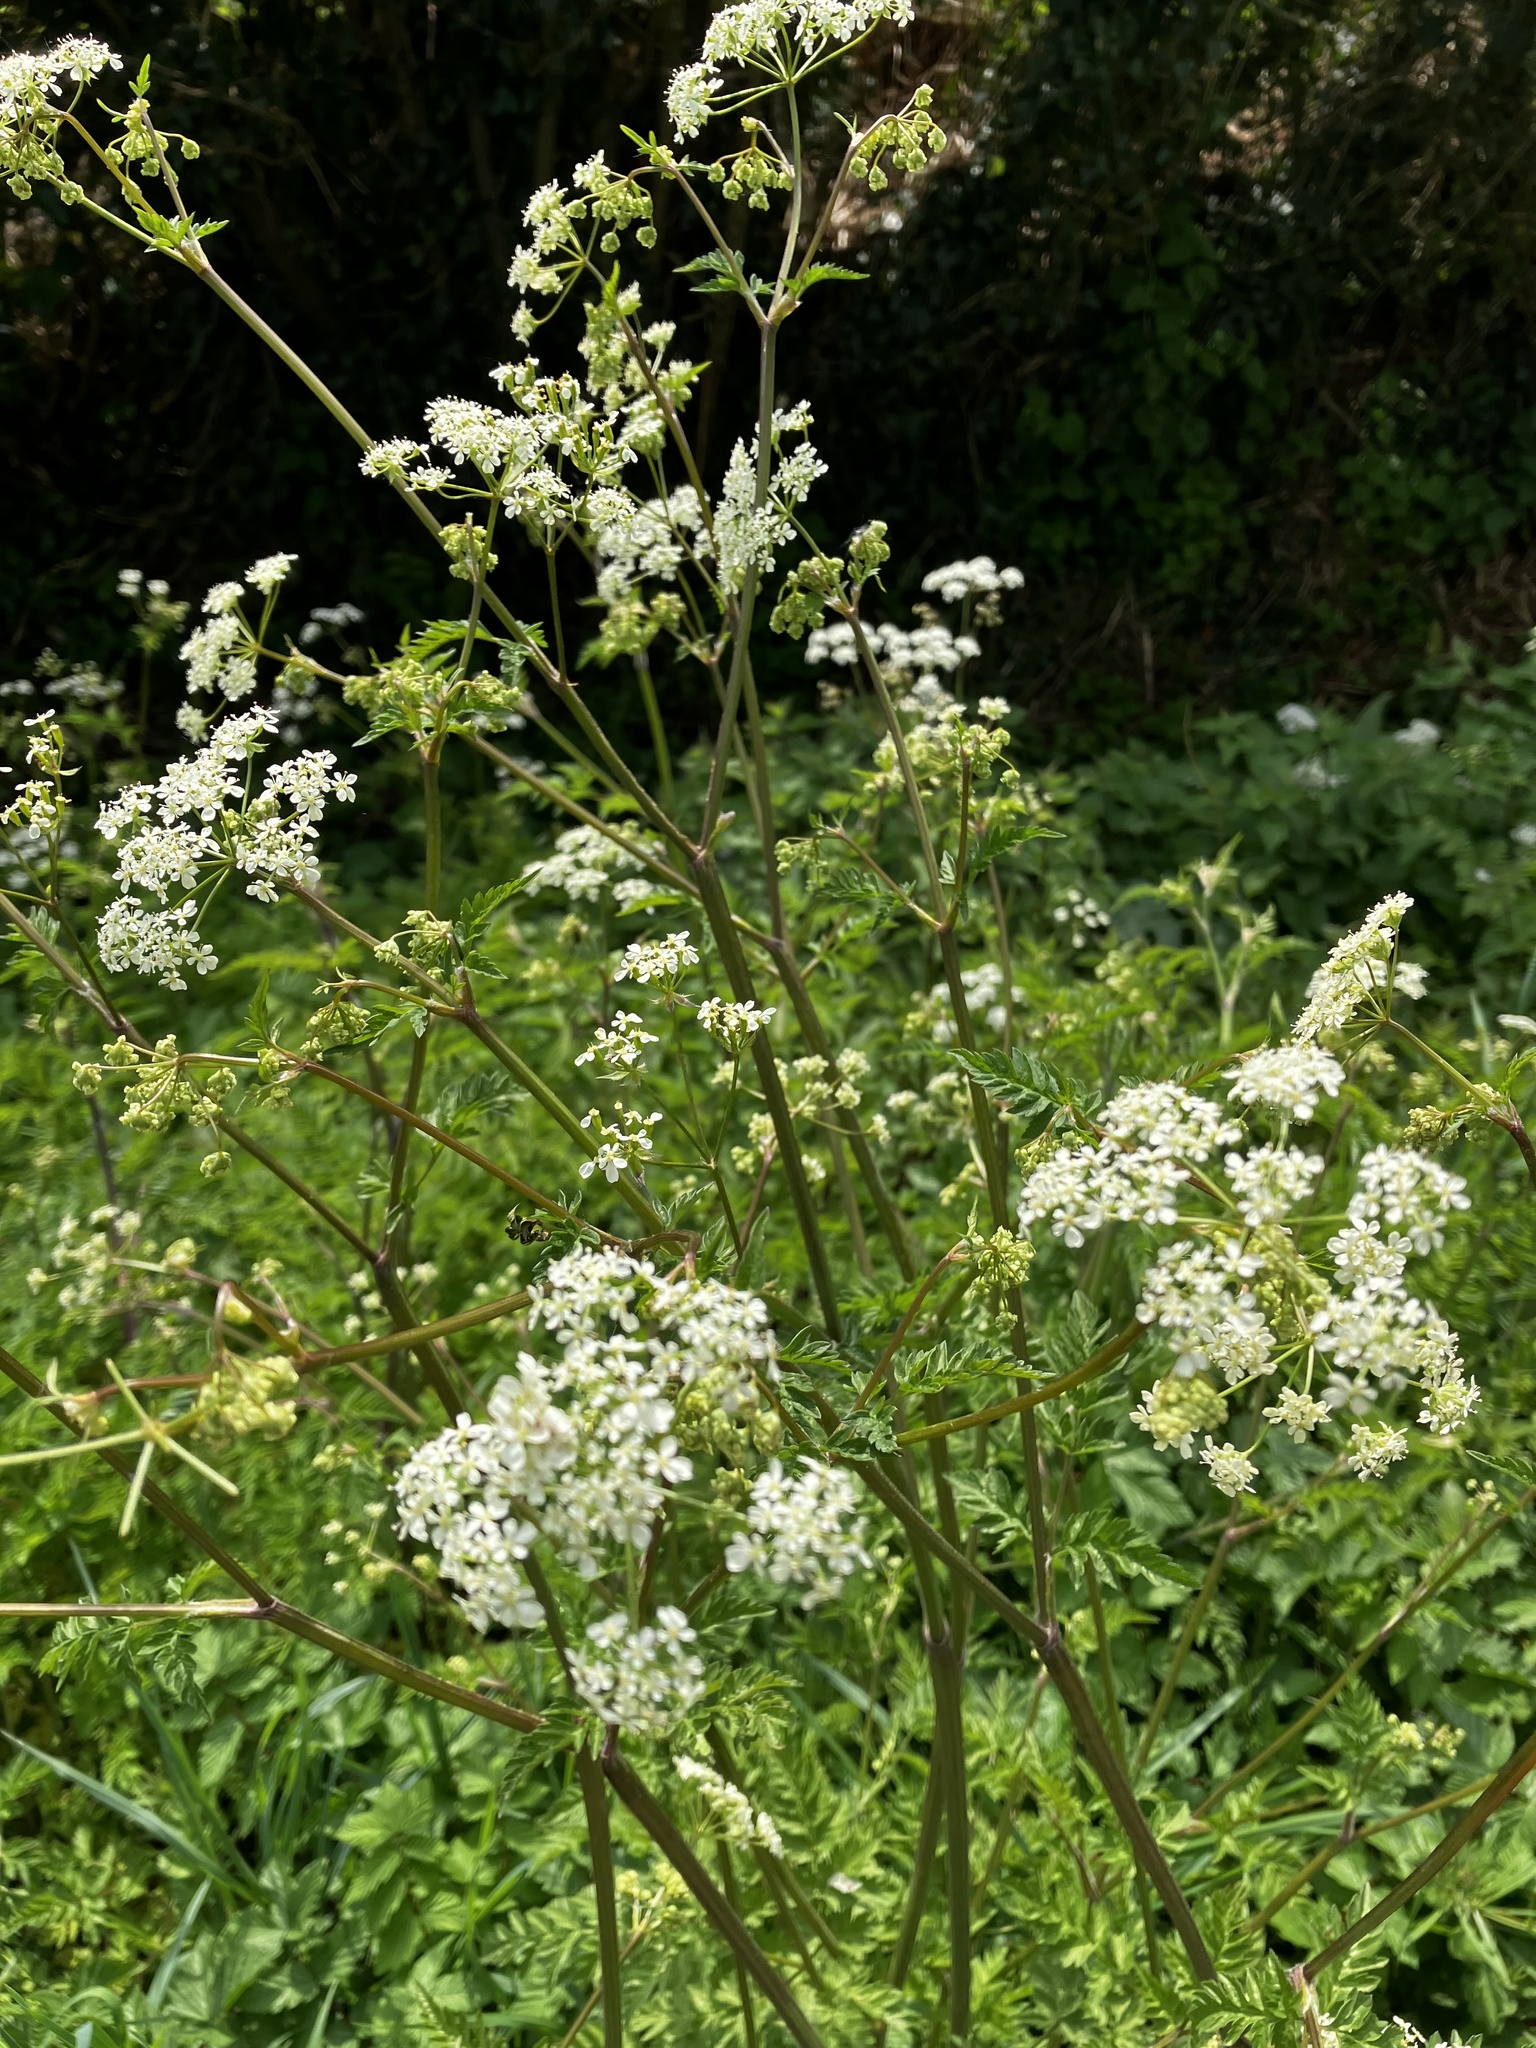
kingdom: Plantae
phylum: Tracheophyta
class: Magnoliopsida
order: Apiales
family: Apiaceae
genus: Anthriscus
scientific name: Anthriscus sylvestris
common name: Cow parsley
